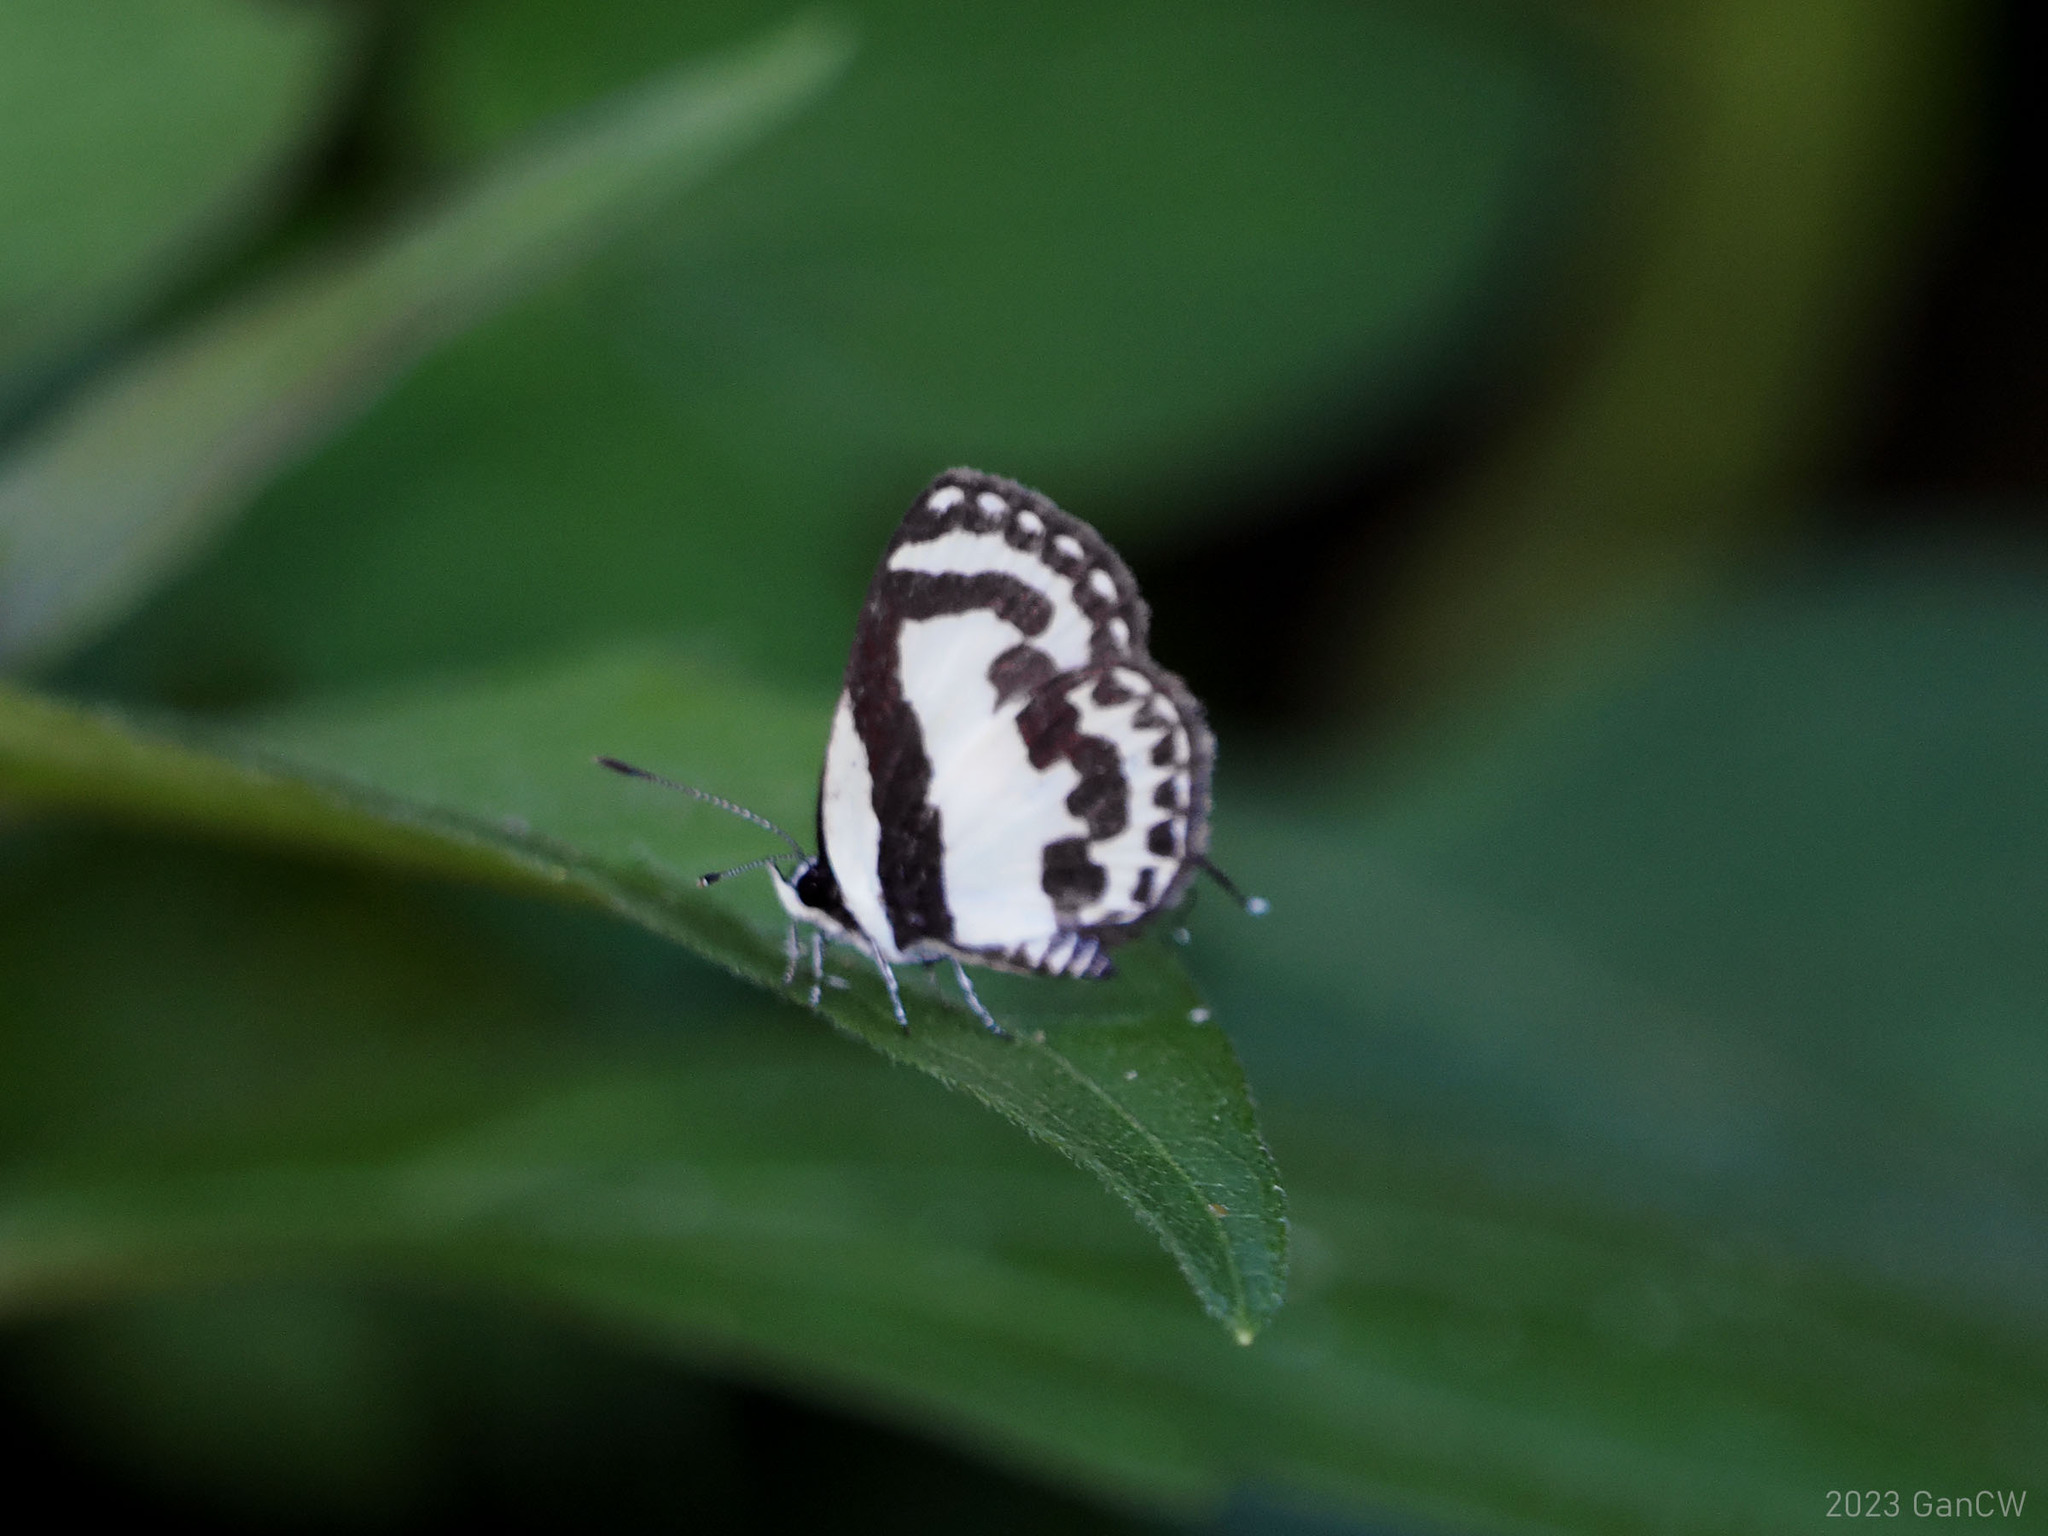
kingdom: Animalia
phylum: Arthropoda
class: Insecta
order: Lepidoptera
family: Lycaenidae
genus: Caleta
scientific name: Caleta roxus
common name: Straight pierrot
